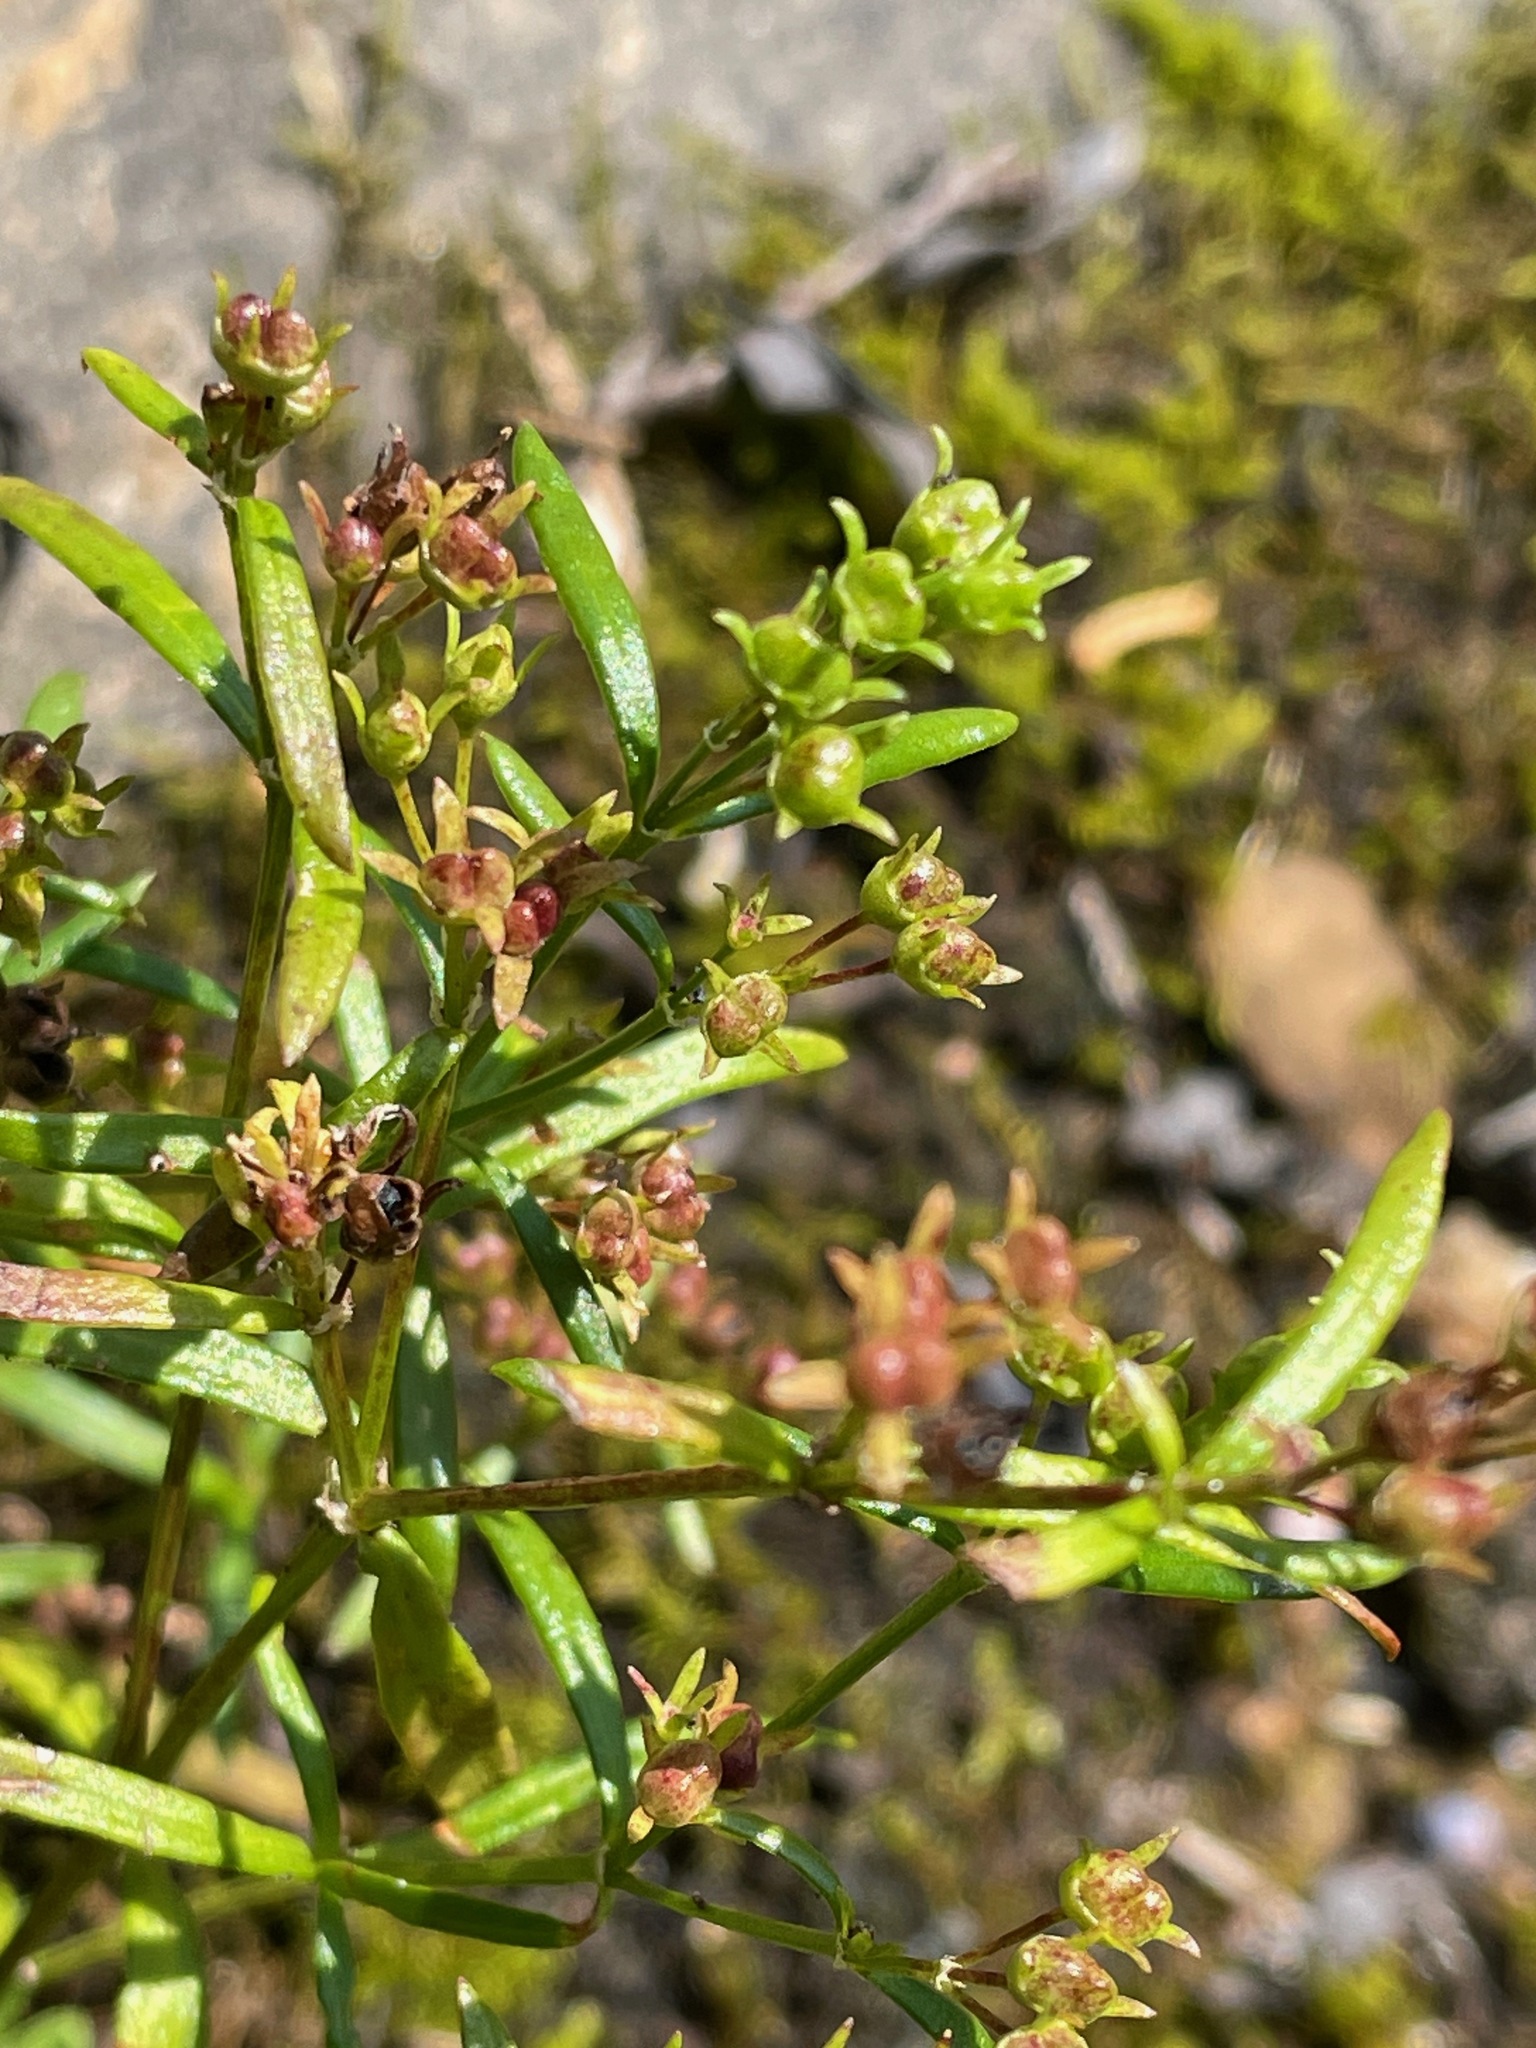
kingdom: Plantae
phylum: Tracheophyta
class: Magnoliopsida
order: Gentianales
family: Rubiaceae
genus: Houstonia
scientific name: Houstonia longifolia
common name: Long-leaved bluets
